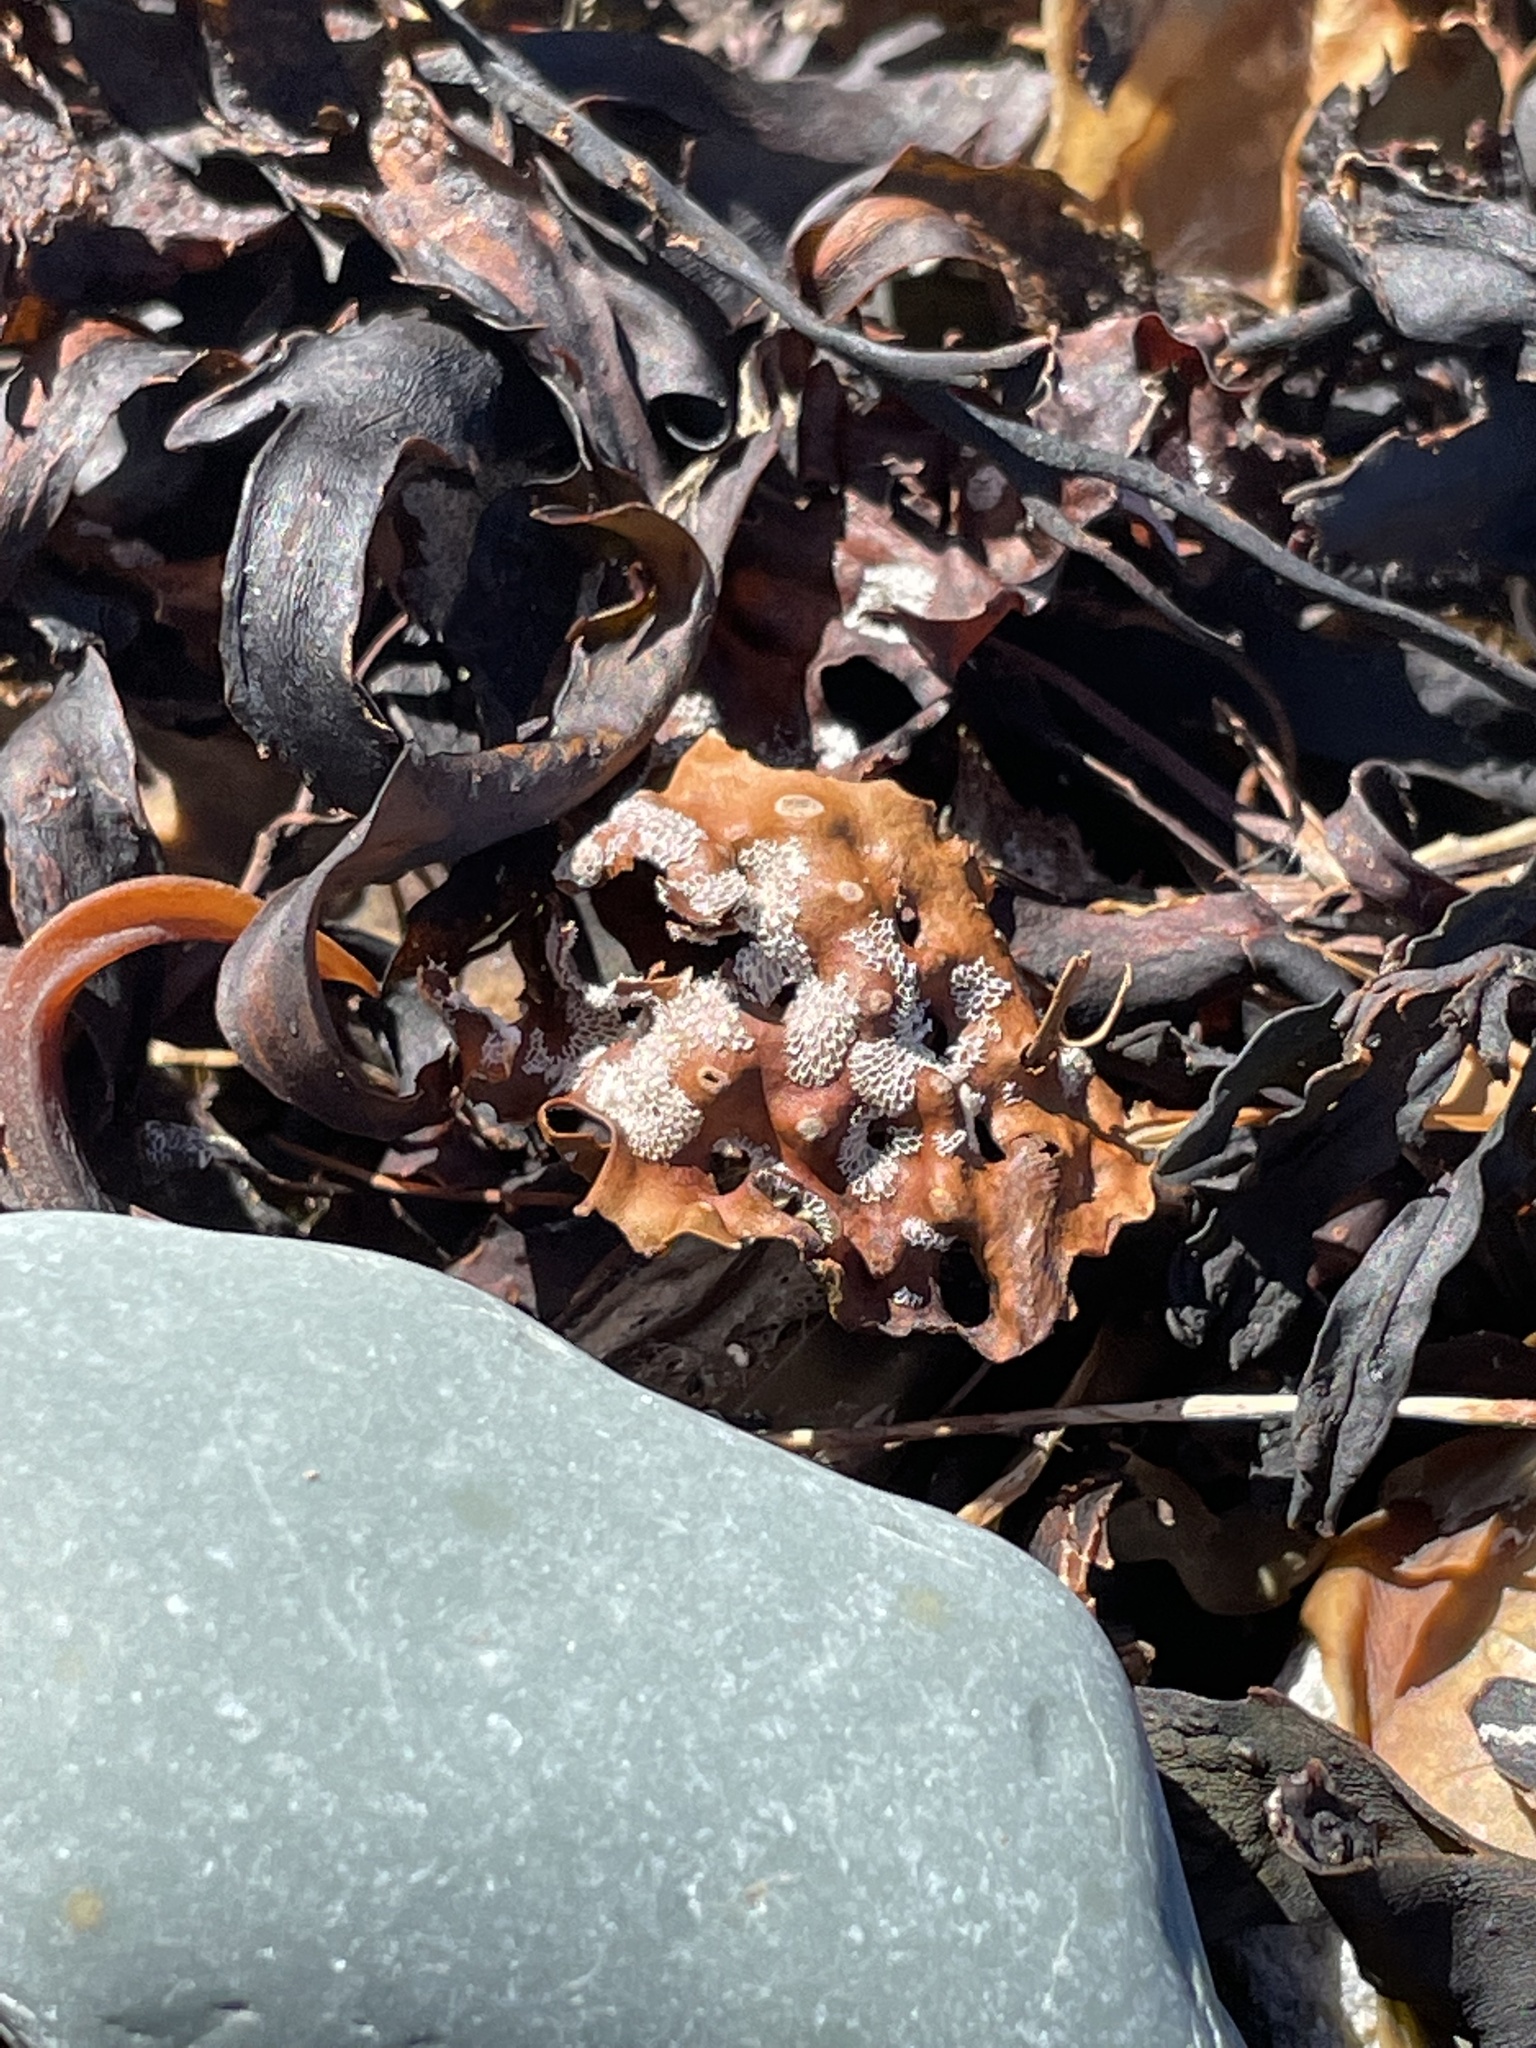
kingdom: Animalia
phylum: Bryozoa
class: Gymnolaemata
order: Cheilostomatida
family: Membraniporidae
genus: Membranipora
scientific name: Membranipora membranacea
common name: Sea mat
